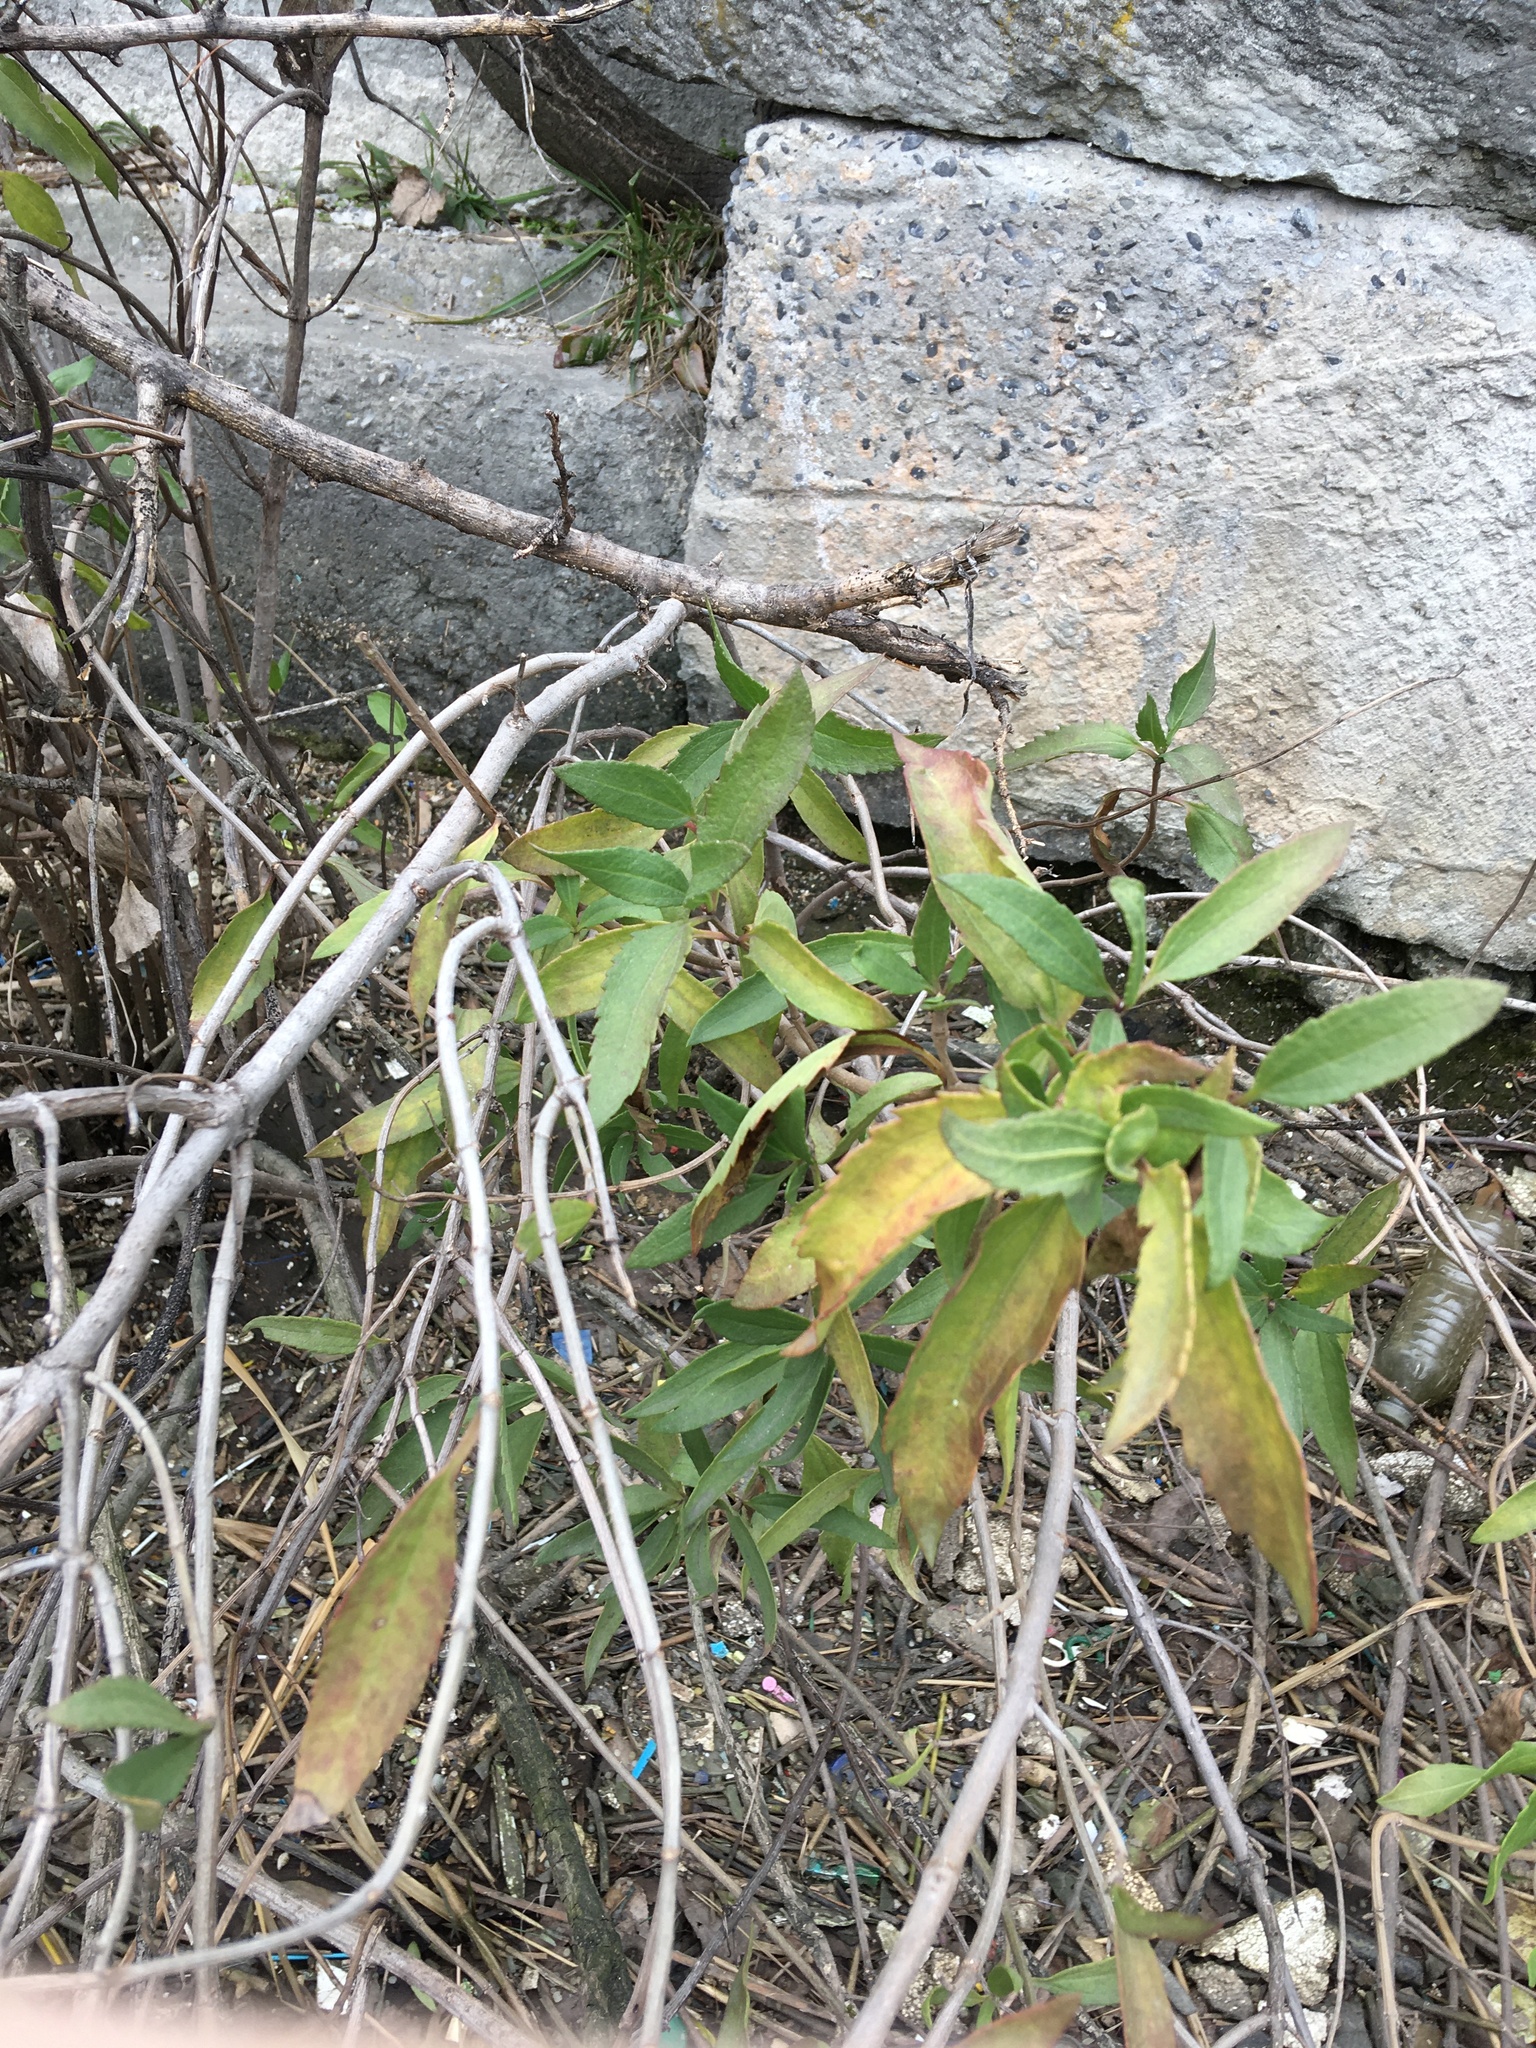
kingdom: Plantae
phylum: Tracheophyta
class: Magnoliopsida
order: Asterales
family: Asteraceae
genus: Iva
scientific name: Iva frutescens
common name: Big-leaved marsh-elder
